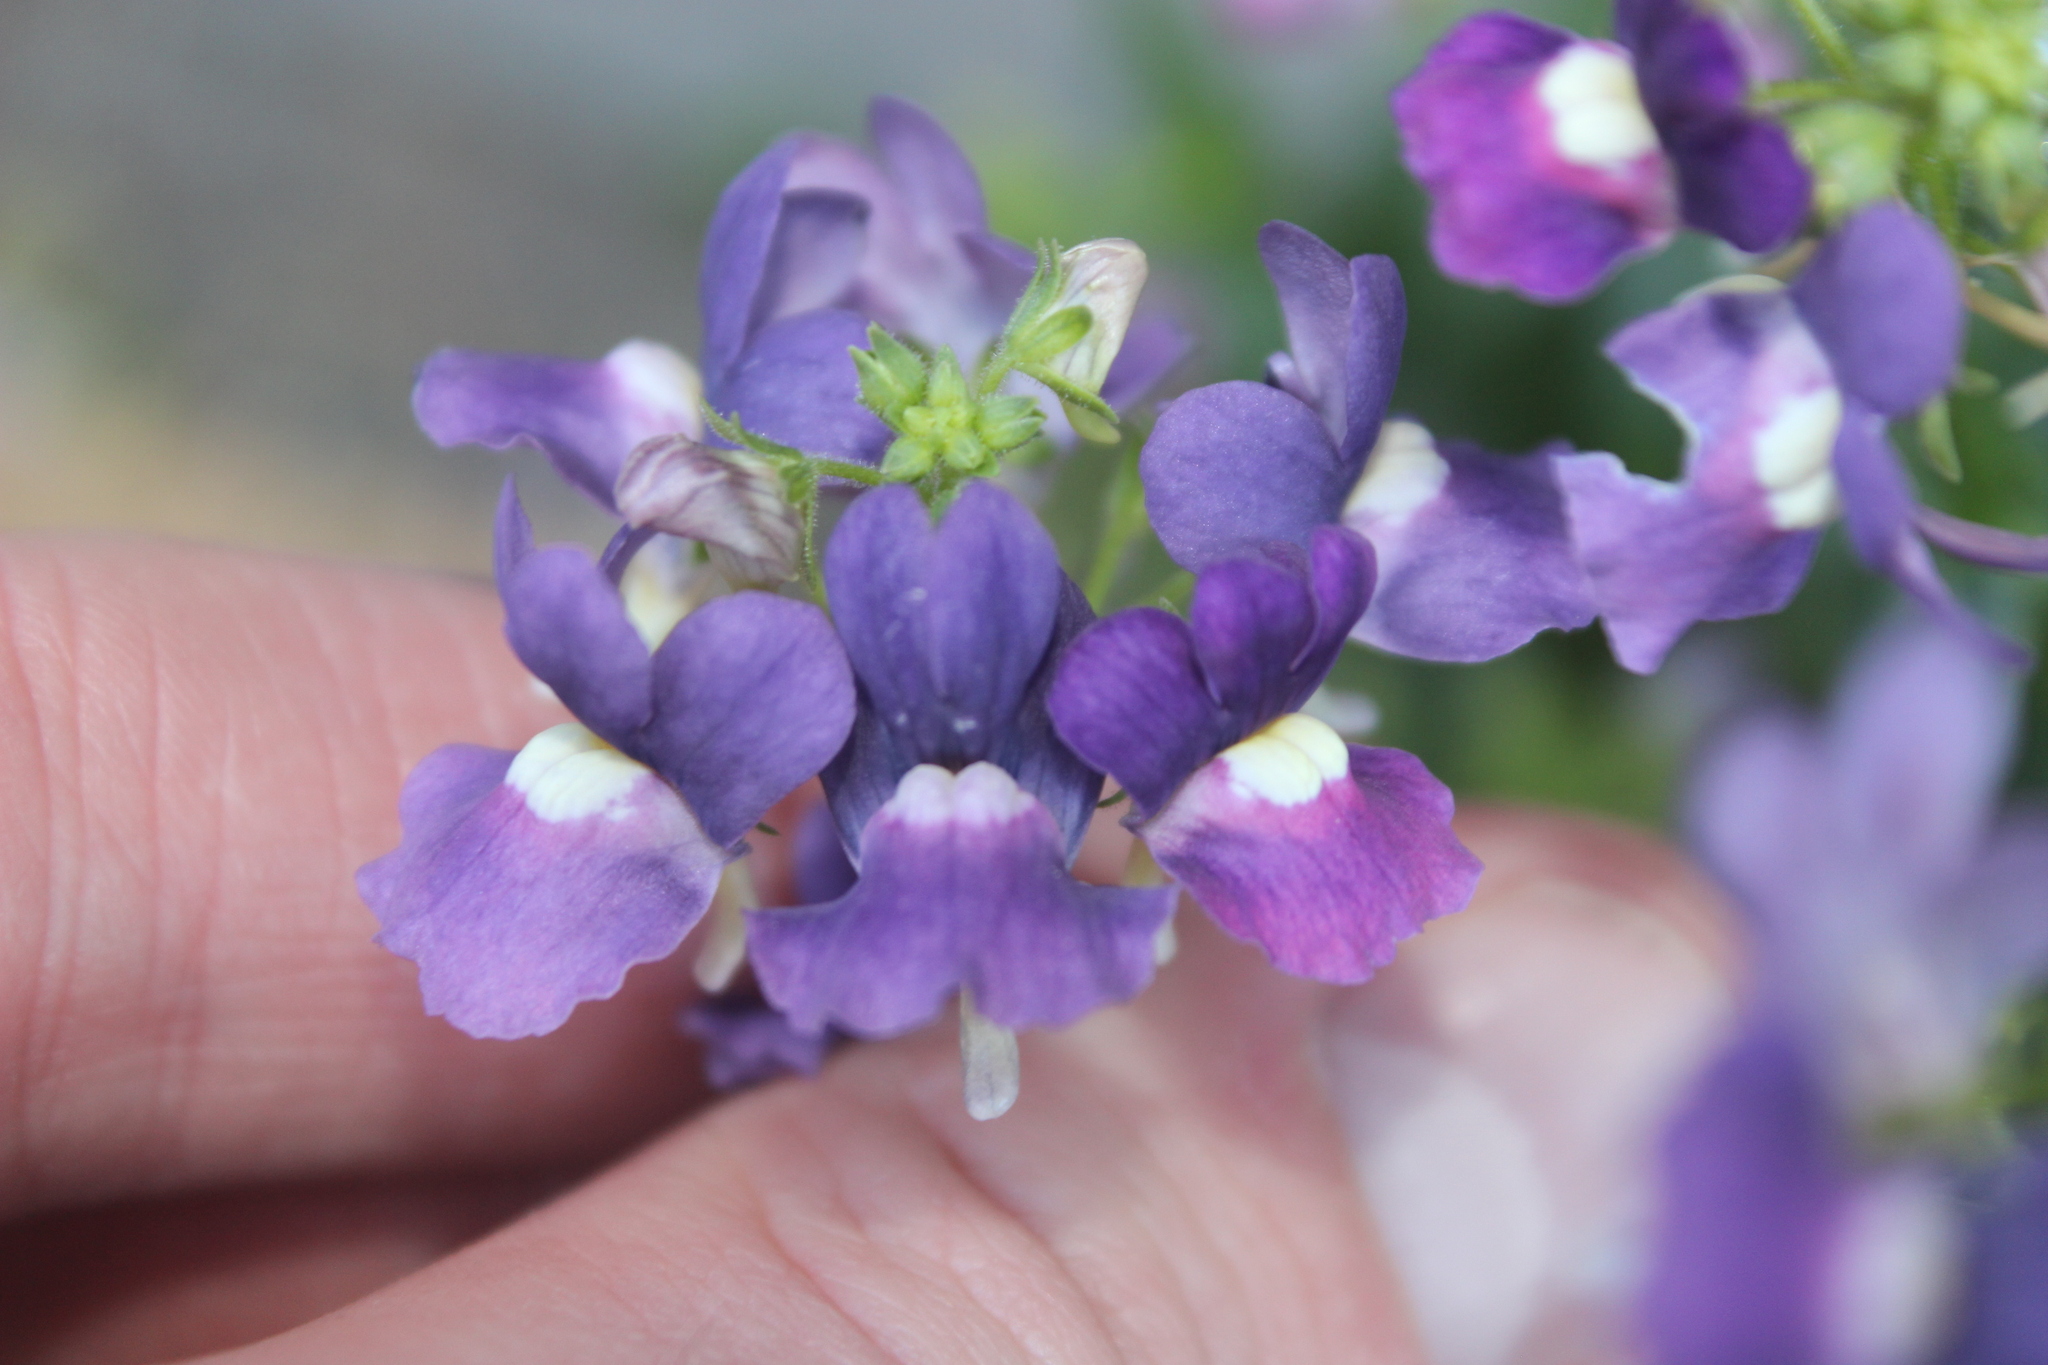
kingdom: Plantae
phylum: Tracheophyta
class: Magnoliopsida
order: Lamiales
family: Scrophulariaceae
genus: Nemesia
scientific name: Nemesia fruticans
